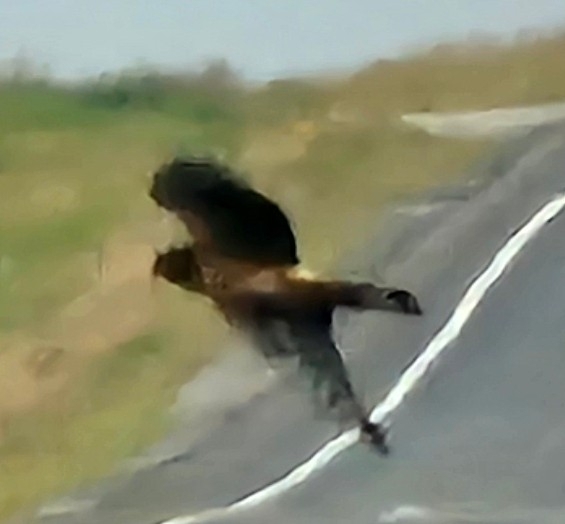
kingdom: Animalia
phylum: Chordata
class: Aves
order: Accipitriformes
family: Accipitridae
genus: Circus
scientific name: Circus cyaneus
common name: Hen harrier
